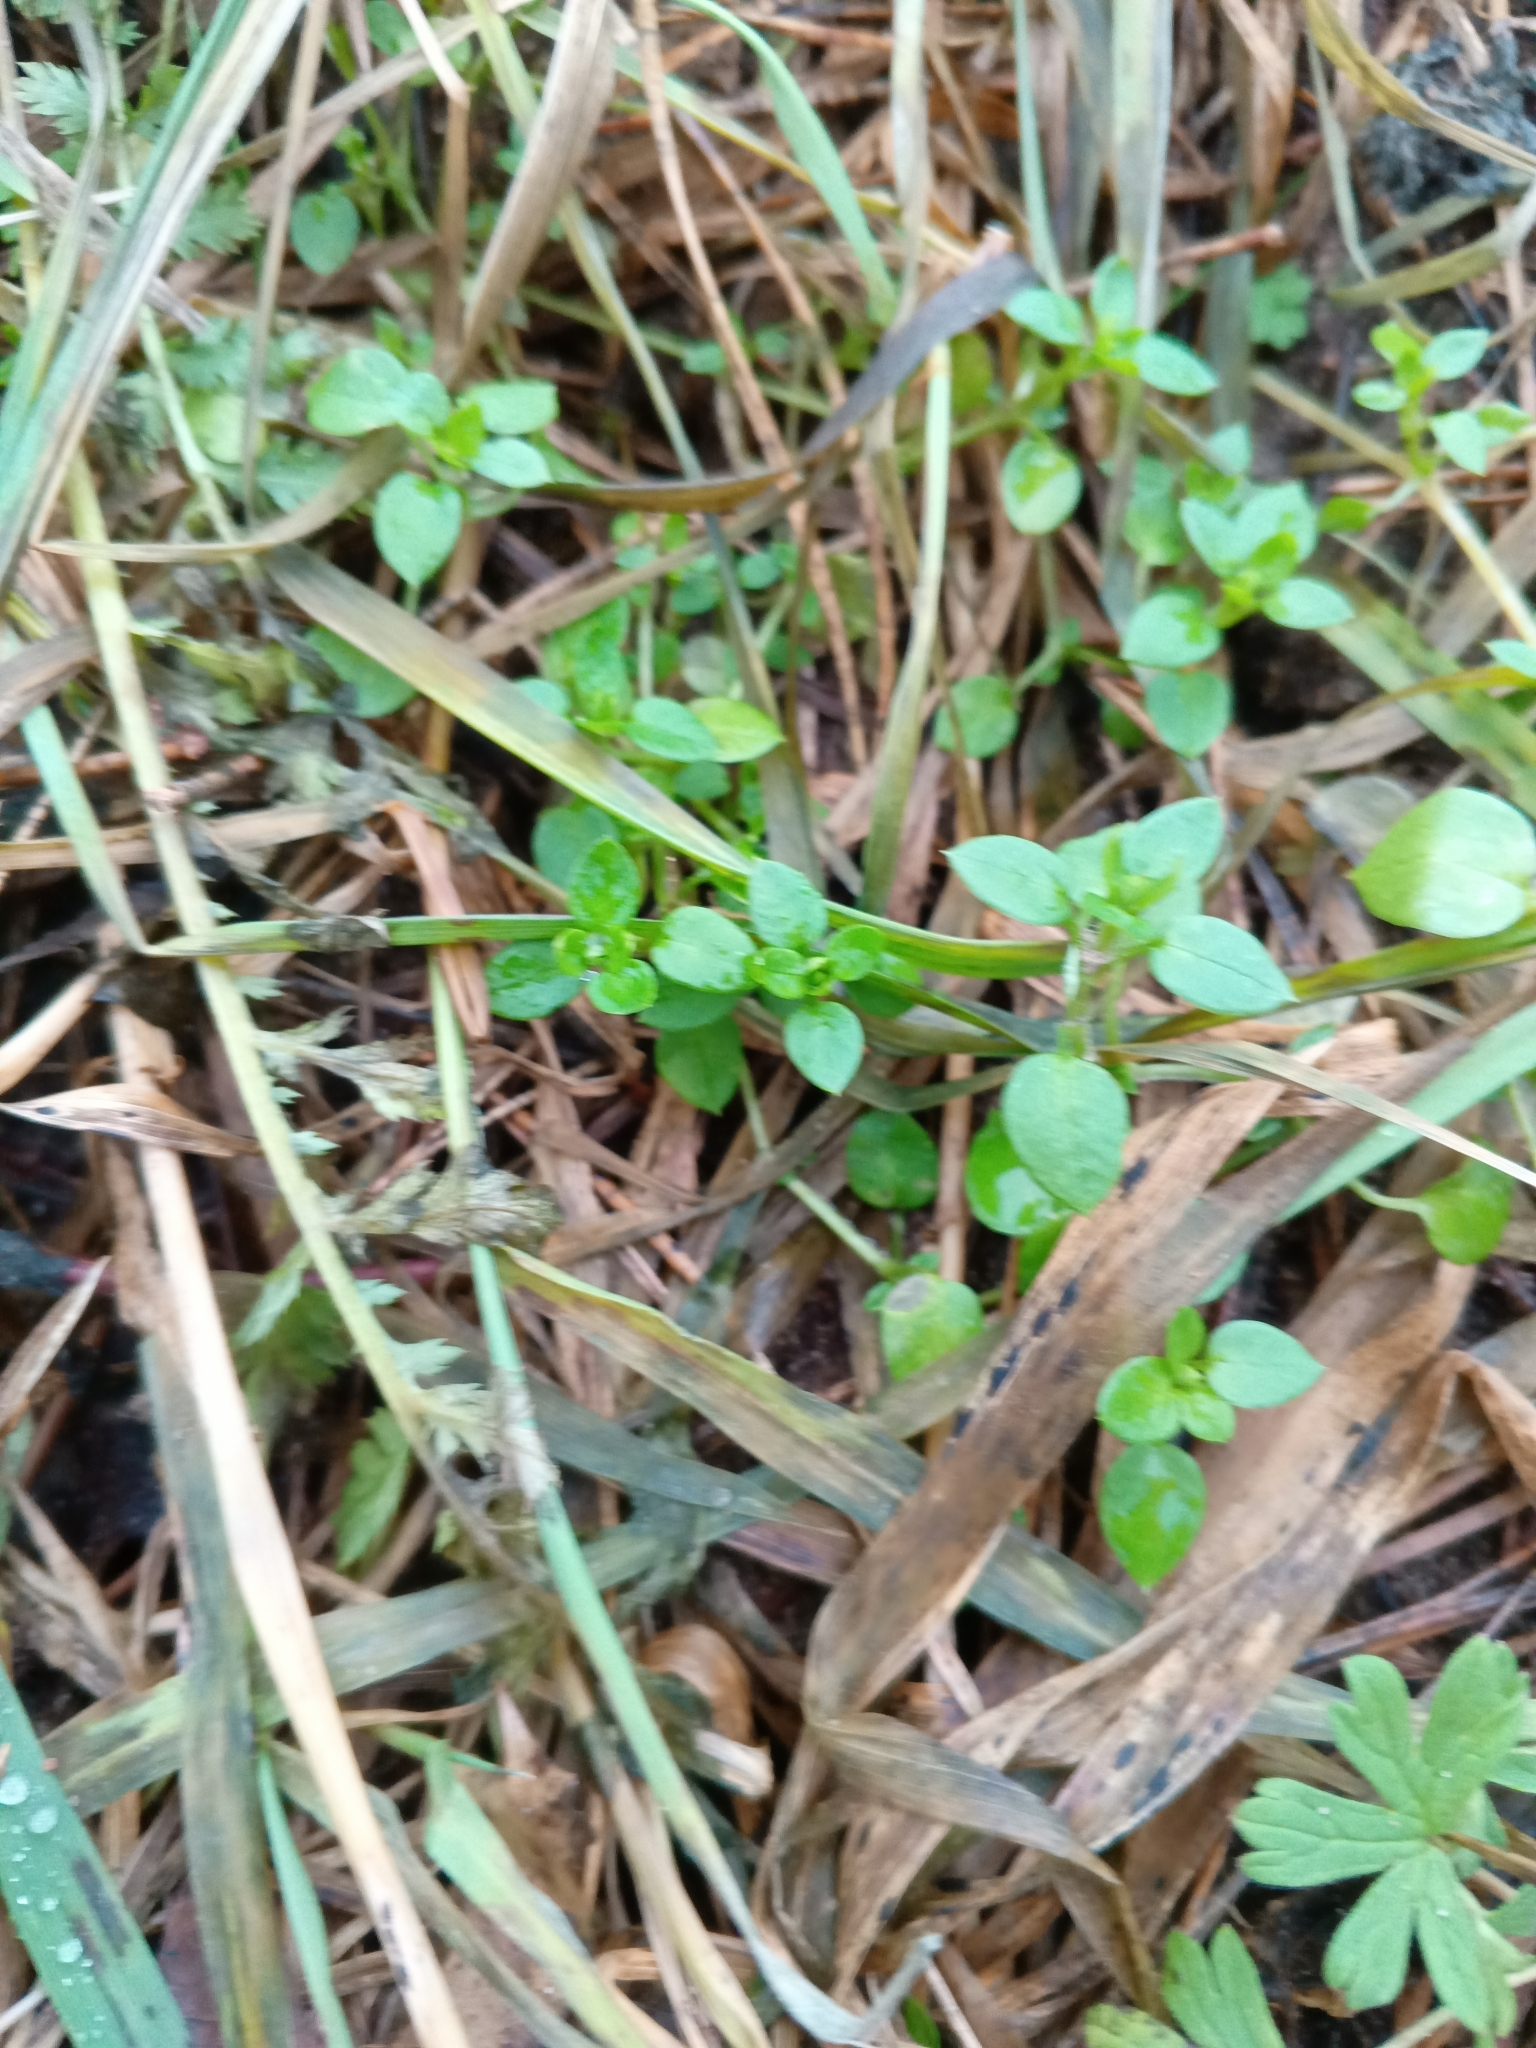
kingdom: Plantae
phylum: Tracheophyta
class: Magnoliopsida
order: Caryophyllales
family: Caryophyllaceae
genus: Stellaria
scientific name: Stellaria media
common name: Common chickweed
